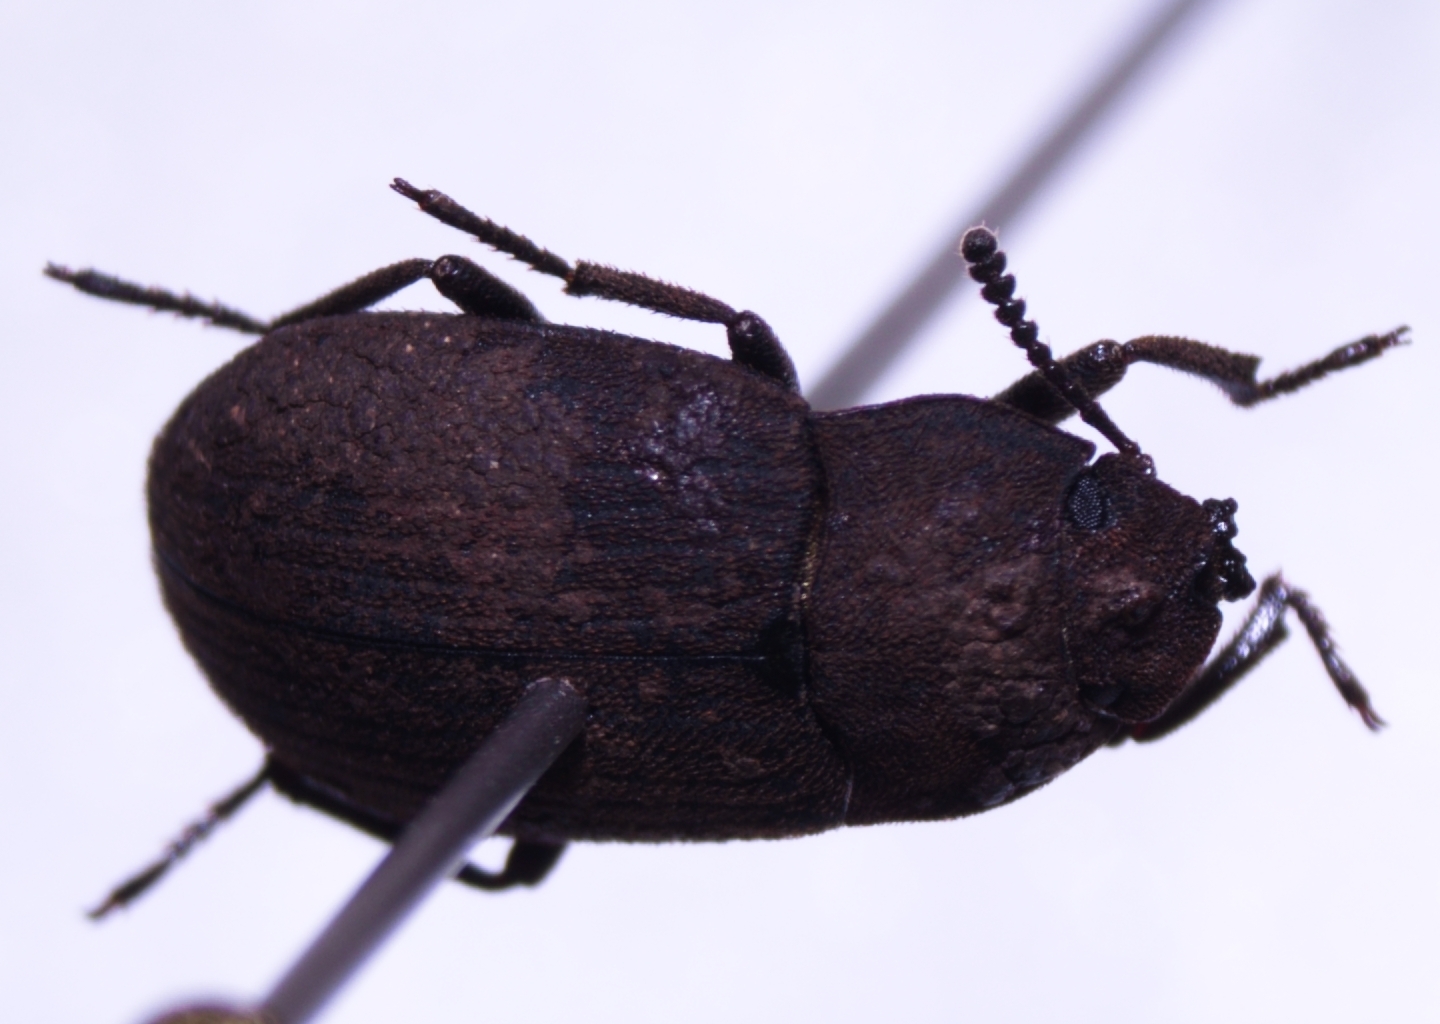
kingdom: Animalia
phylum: Arthropoda
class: Insecta
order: Coleoptera
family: Tenebrionidae
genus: Gonocephalum
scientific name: Gonocephalum adpressiforme
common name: Gonocephalum darkling beetle
